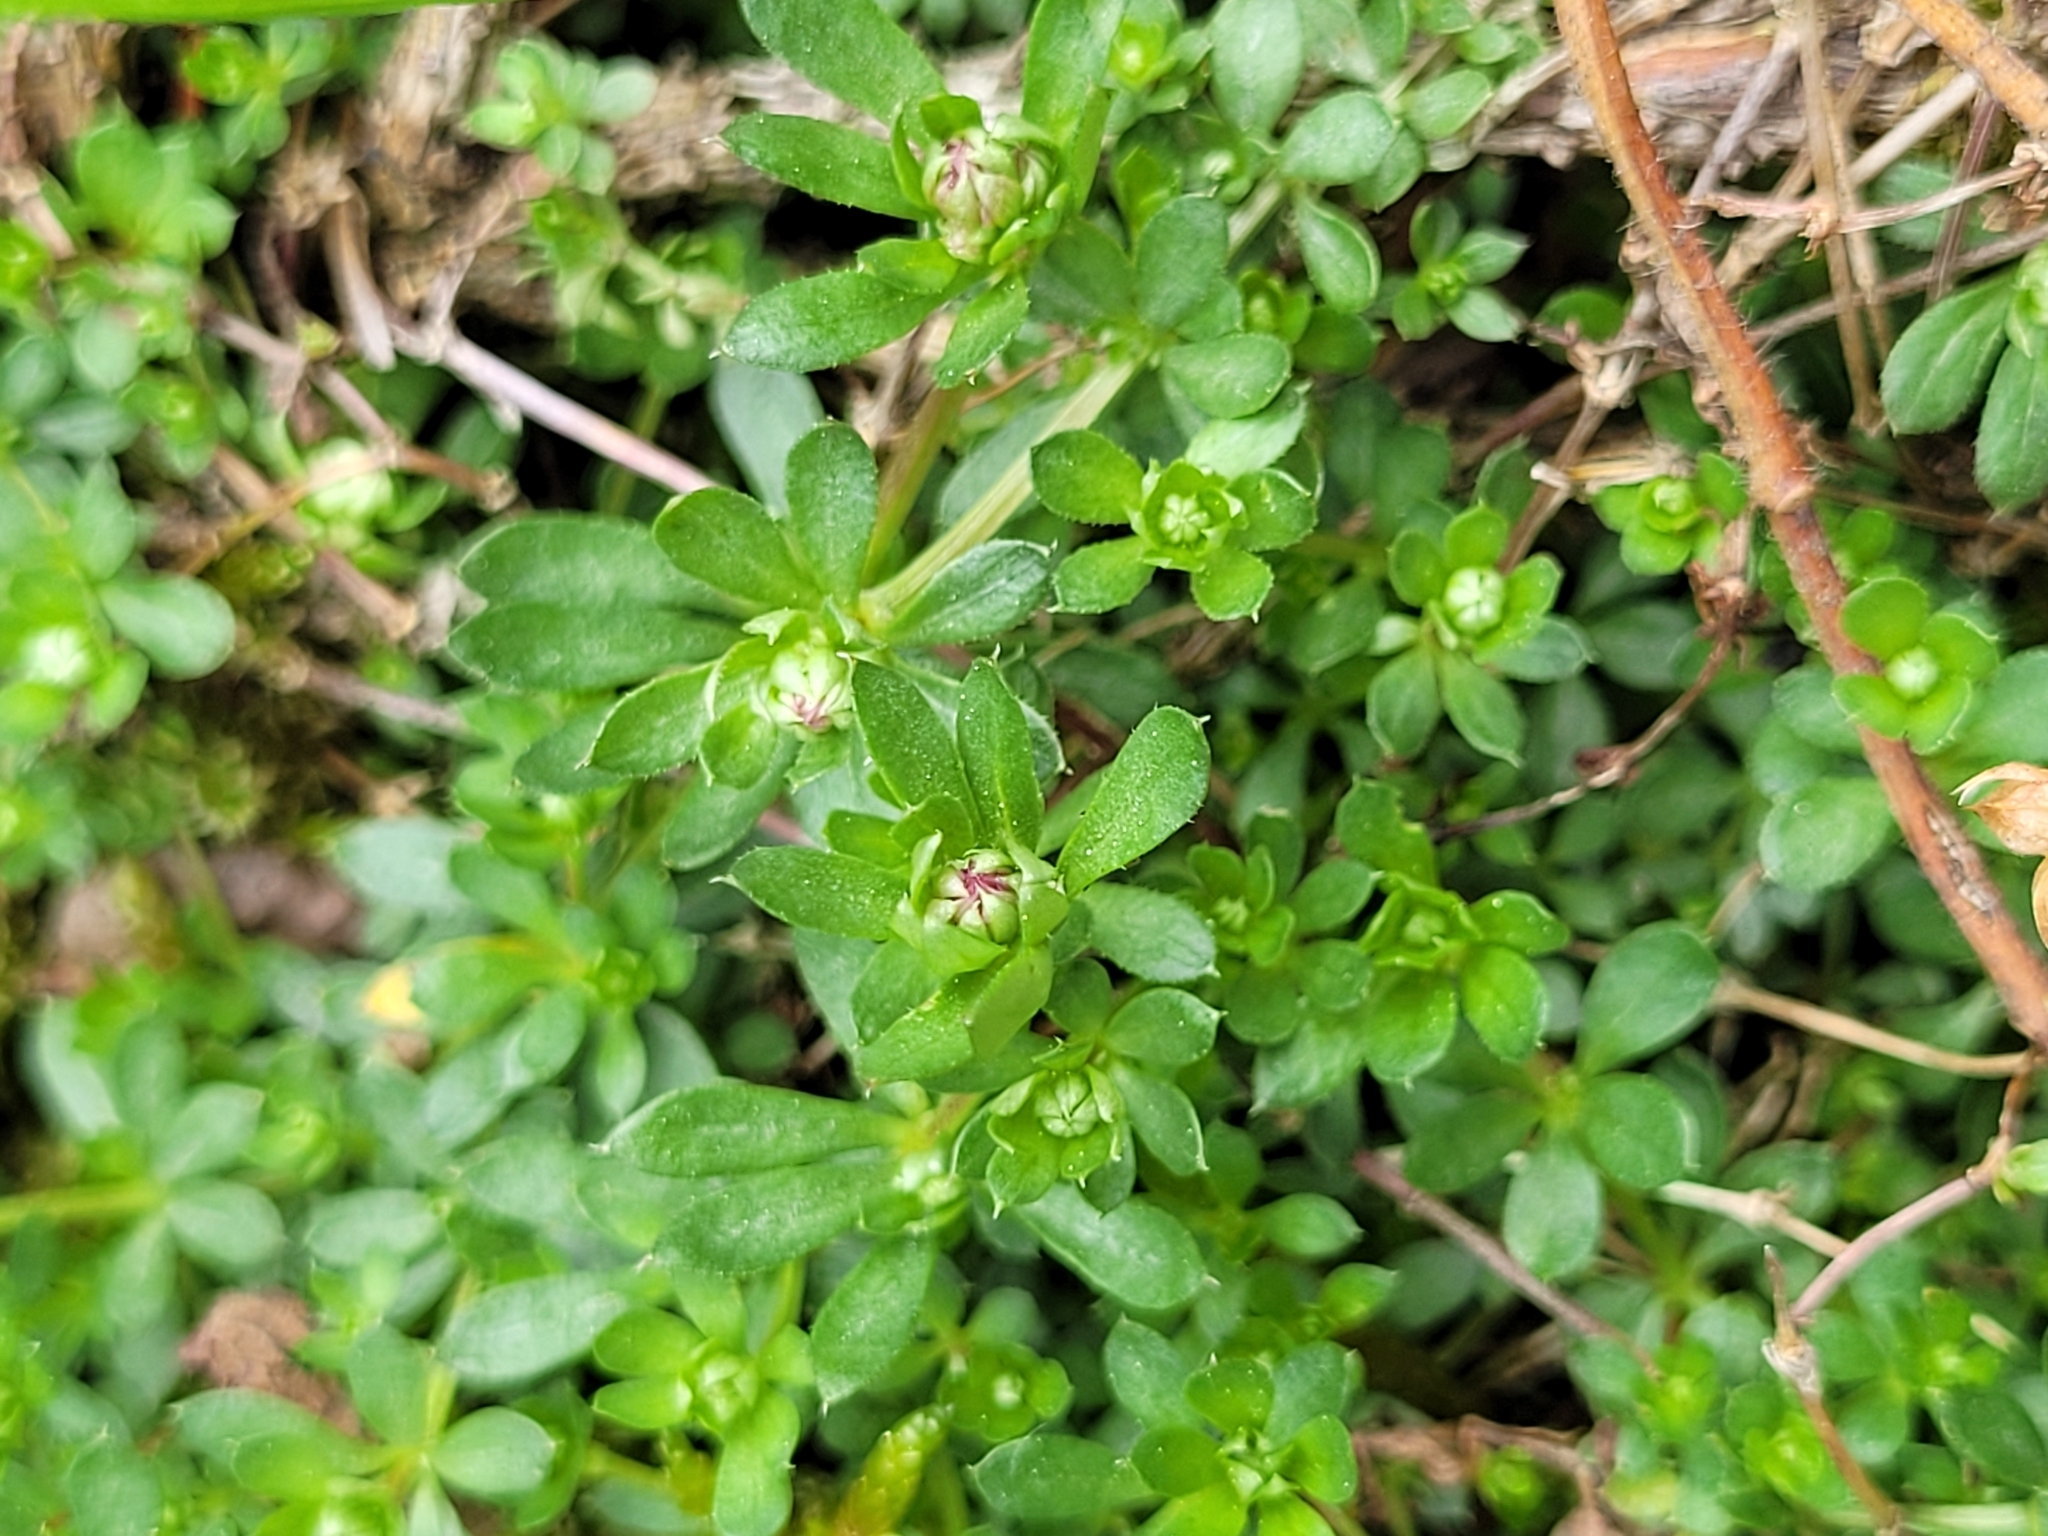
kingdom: Plantae
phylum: Tracheophyta
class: Magnoliopsida
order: Gentianales
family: Rubiaceae
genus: Galium
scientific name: Galium saxatile
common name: Heath bedstraw
